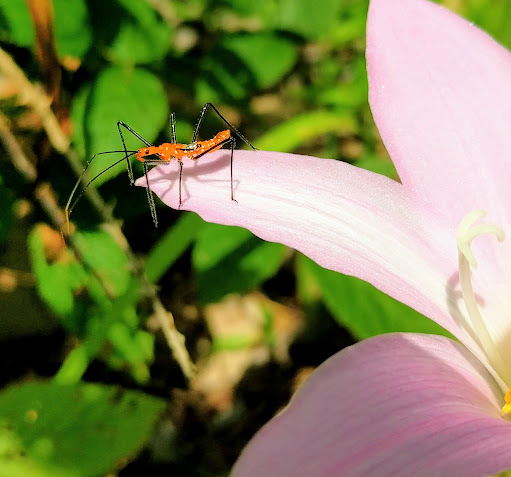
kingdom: Animalia
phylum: Arthropoda
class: Insecta
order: Hemiptera
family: Reduviidae
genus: Zelus
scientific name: Zelus longipes
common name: Milkweed assassin bug
